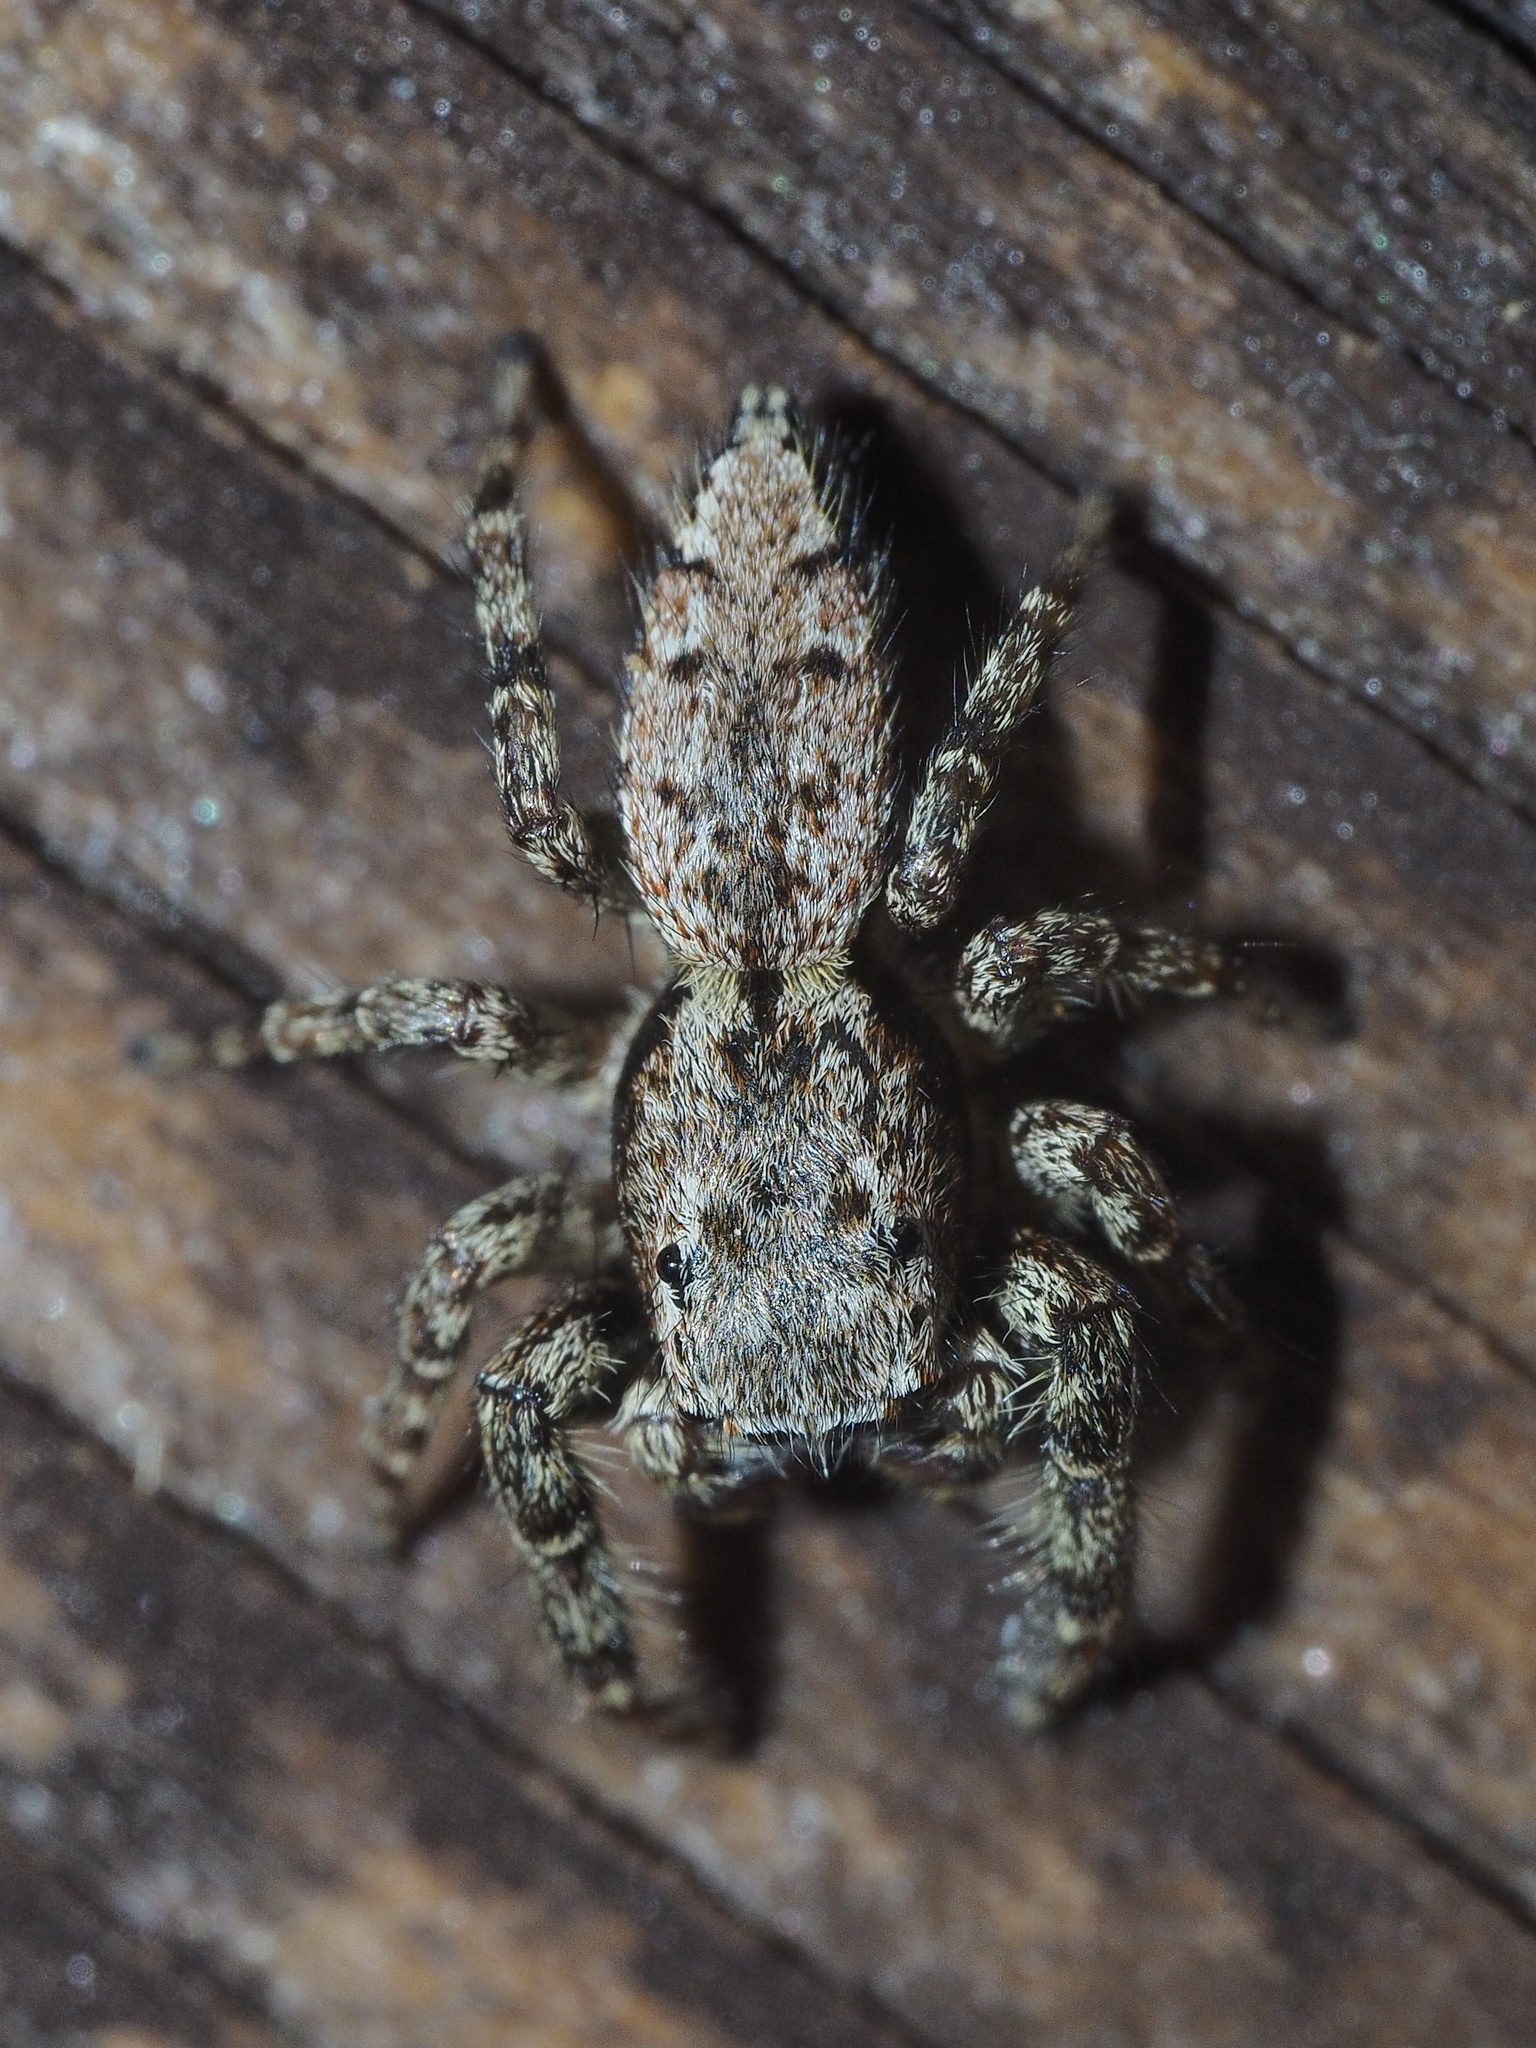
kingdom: Animalia
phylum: Arthropoda
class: Arachnida
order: Araneae
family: Salticidae
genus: Marpissa
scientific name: Marpissa muscosa
